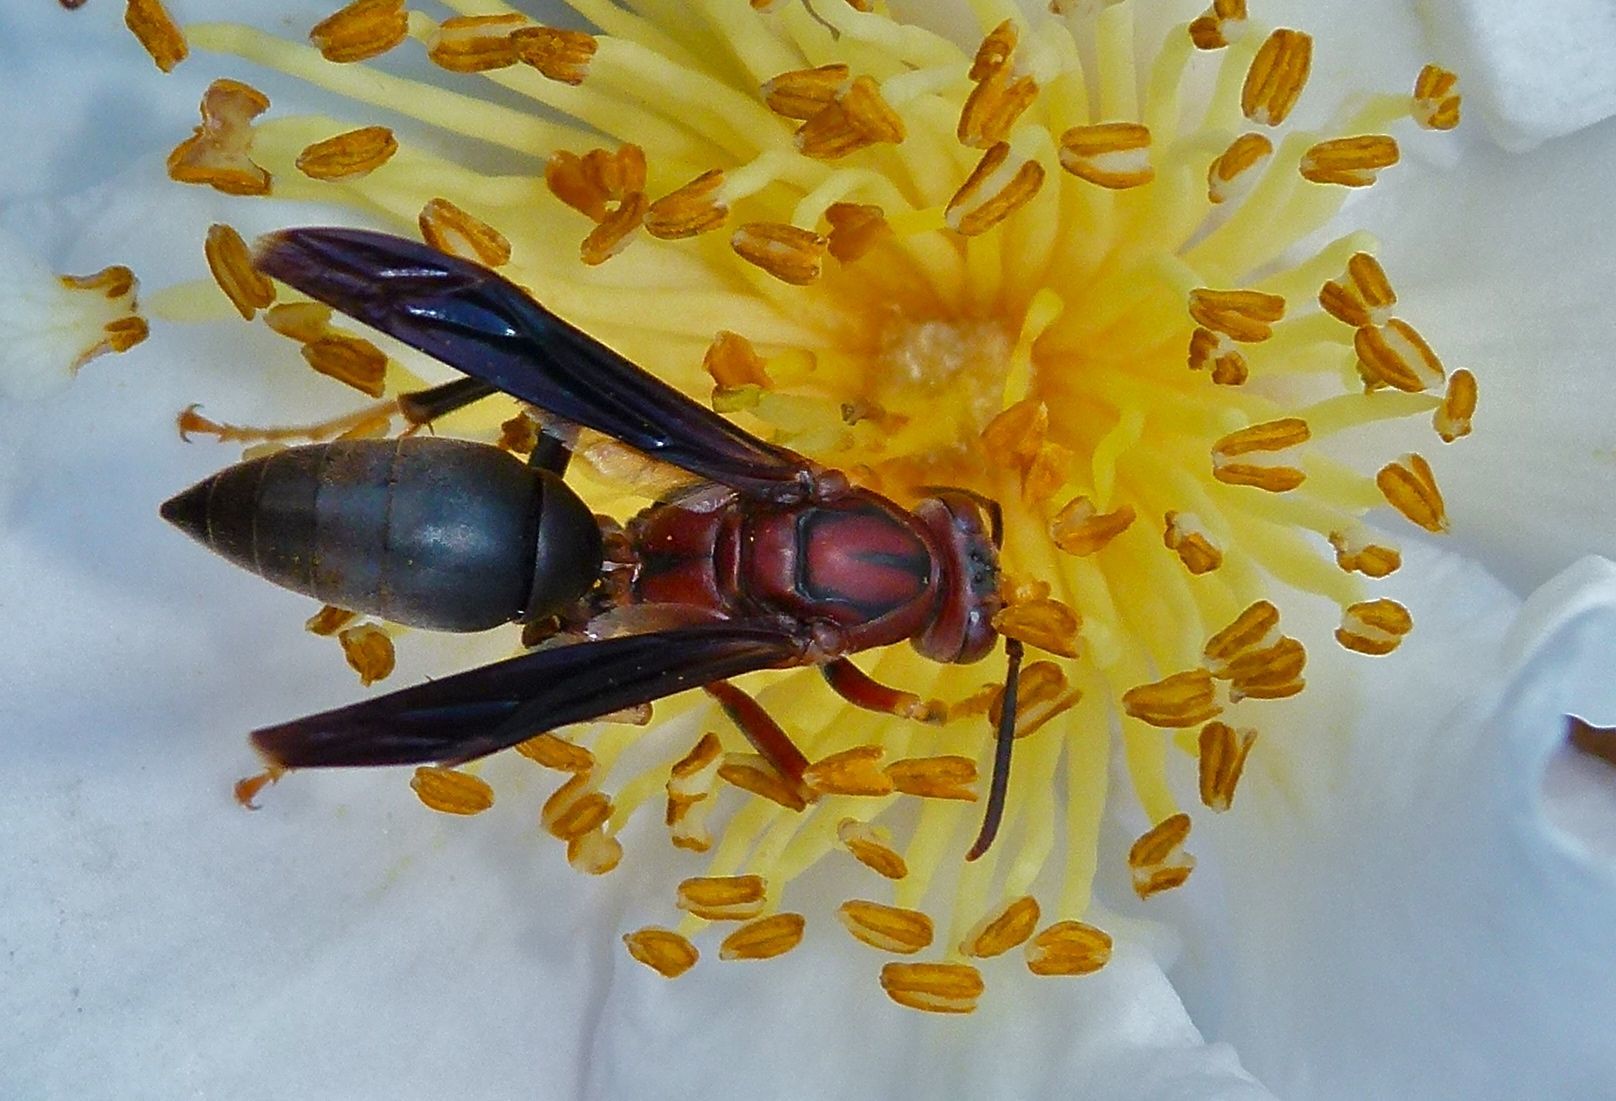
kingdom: Animalia
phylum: Arthropoda
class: Insecta
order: Hymenoptera
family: Eumenidae
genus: Polistes
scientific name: Polistes metricus
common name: Metric paper wasp
